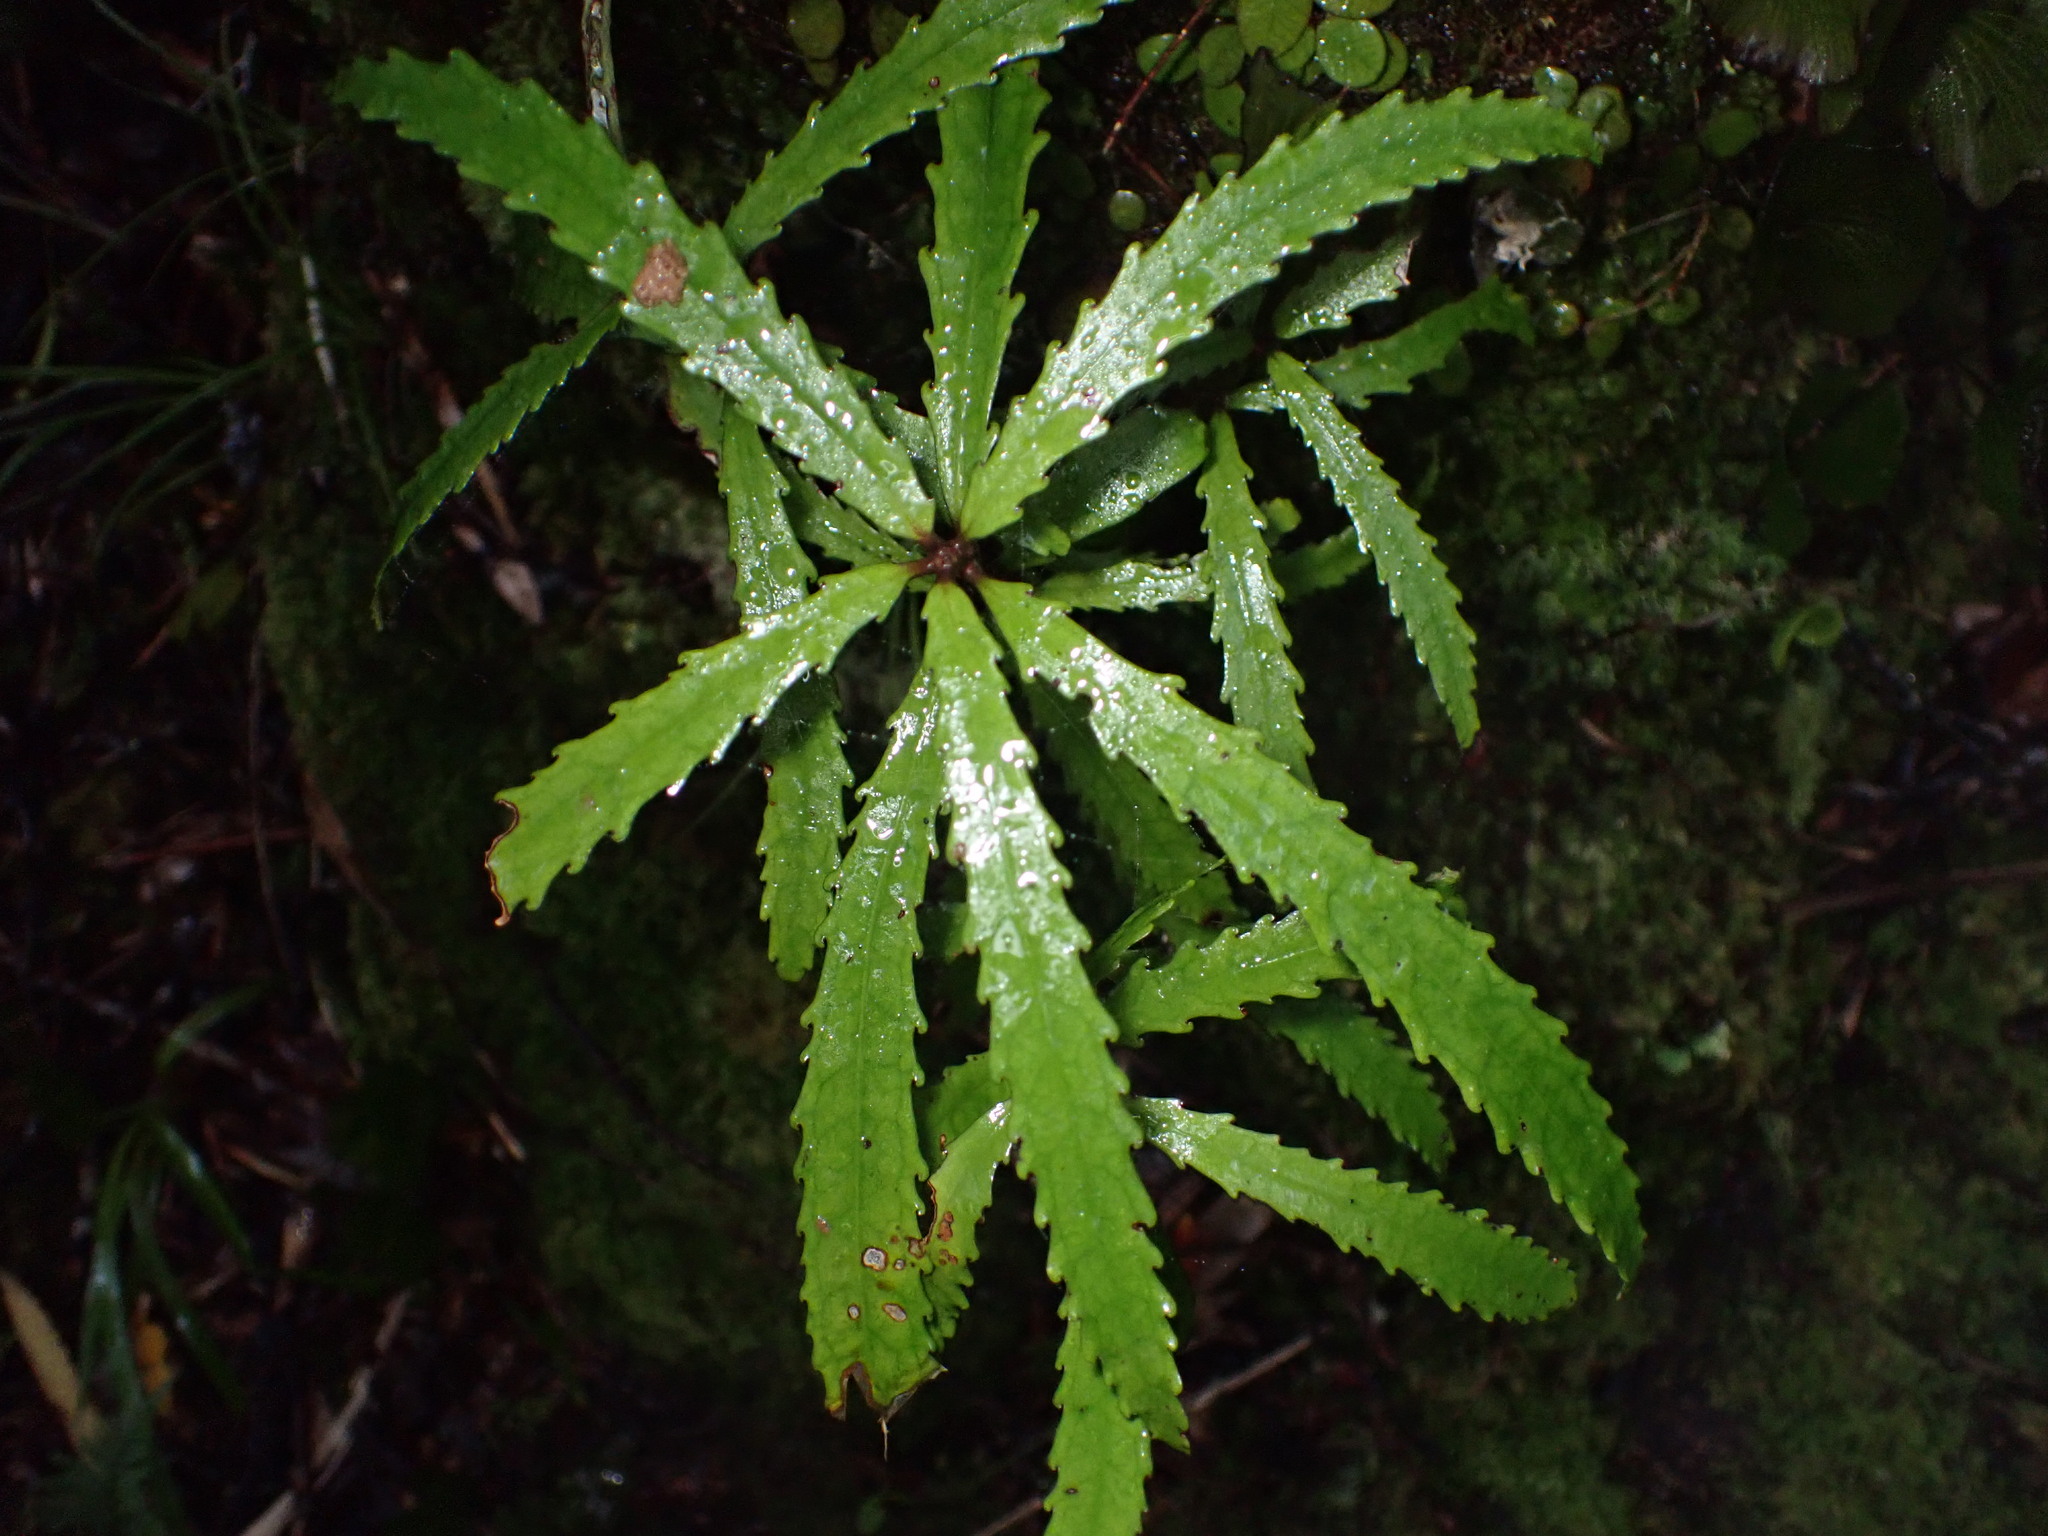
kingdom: Plantae
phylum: Tracheophyta
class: Magnoliopsida
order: Crossosomatales
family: Ixerbaceae
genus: Ixerba
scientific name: Ixerba brexioides
